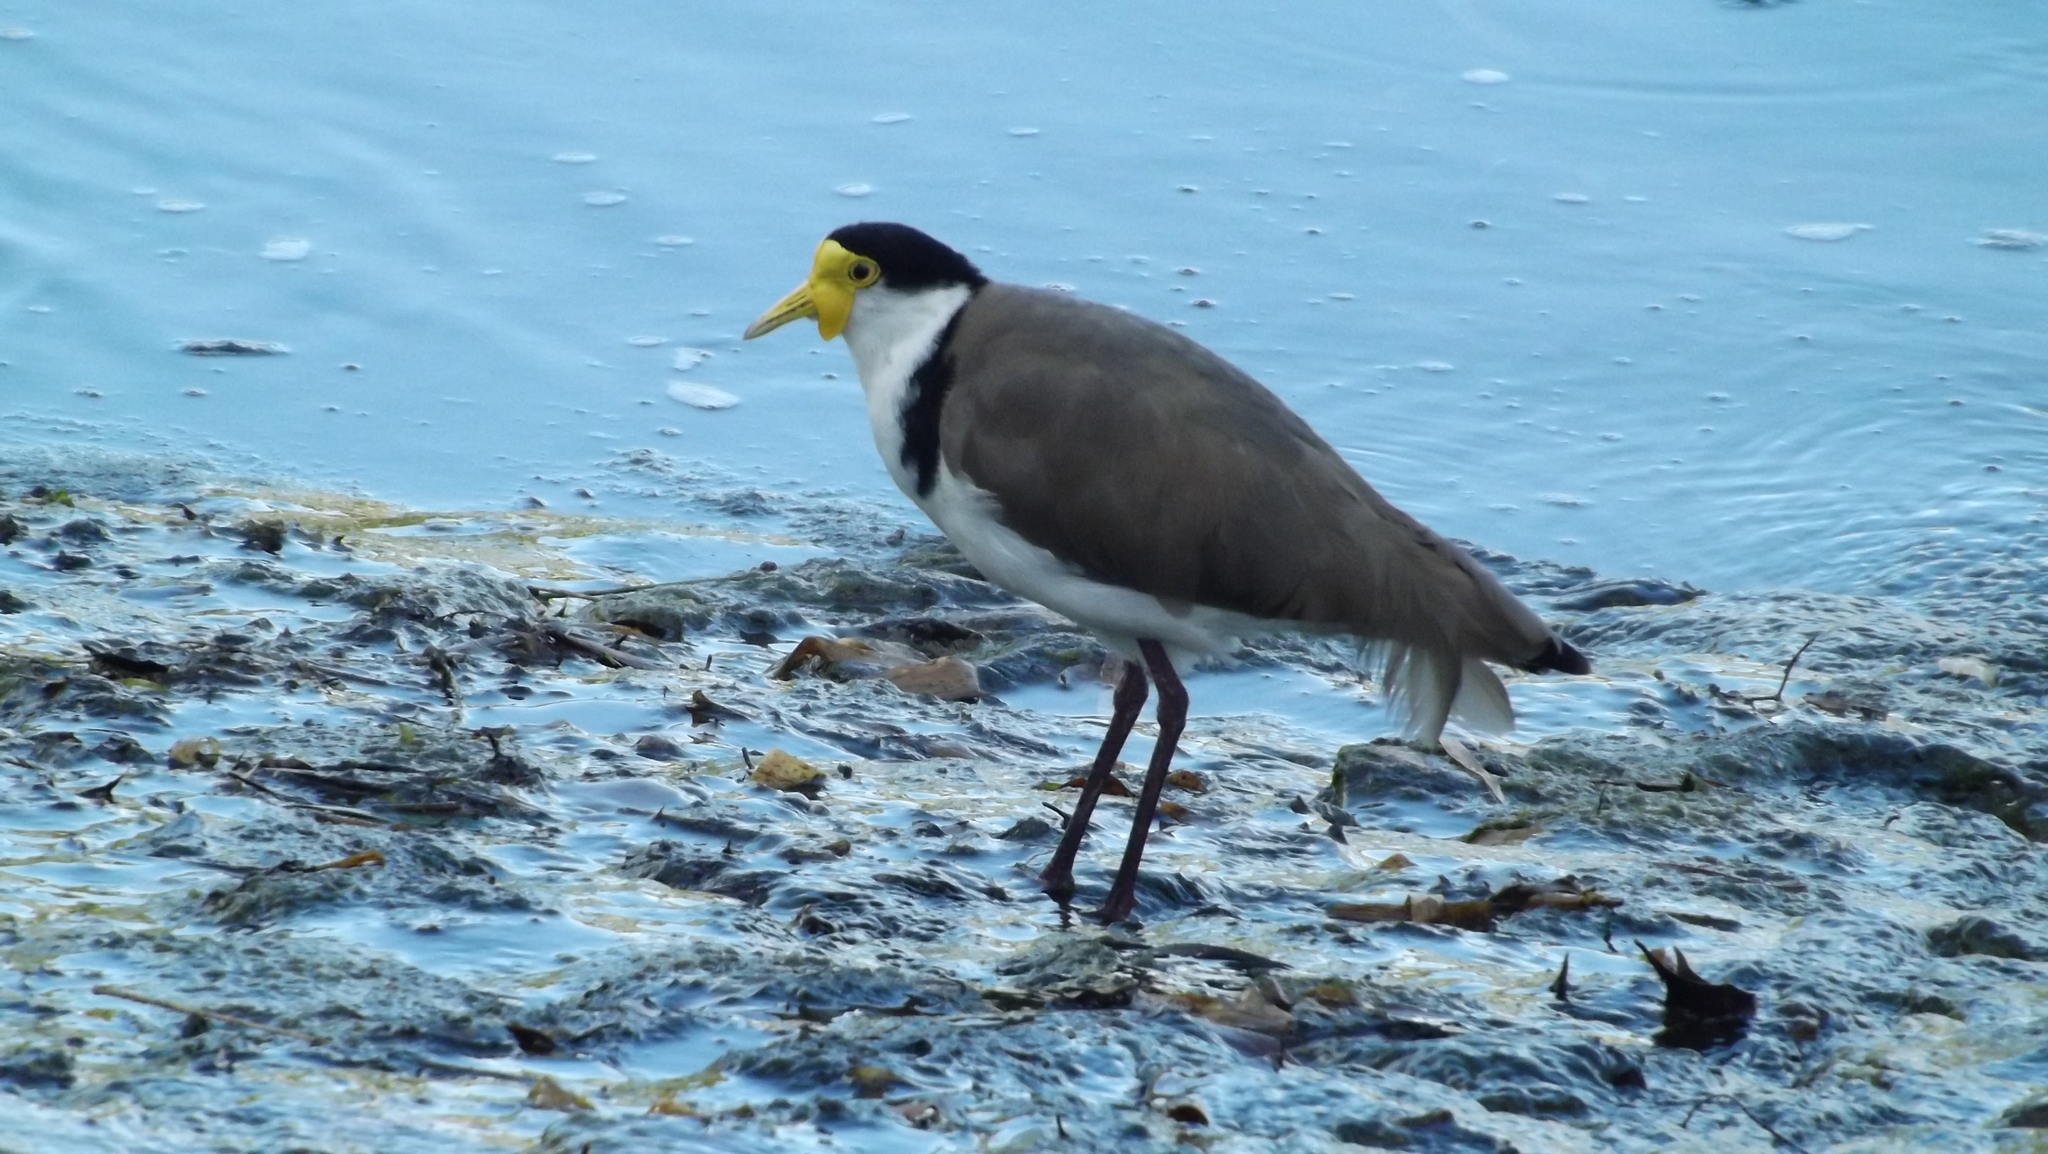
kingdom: Animalia
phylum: Chordata
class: Aves
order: Charadriiformes
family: Charadriidae
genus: Vanellus
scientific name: Vanellus miles
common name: Masked lapwing
